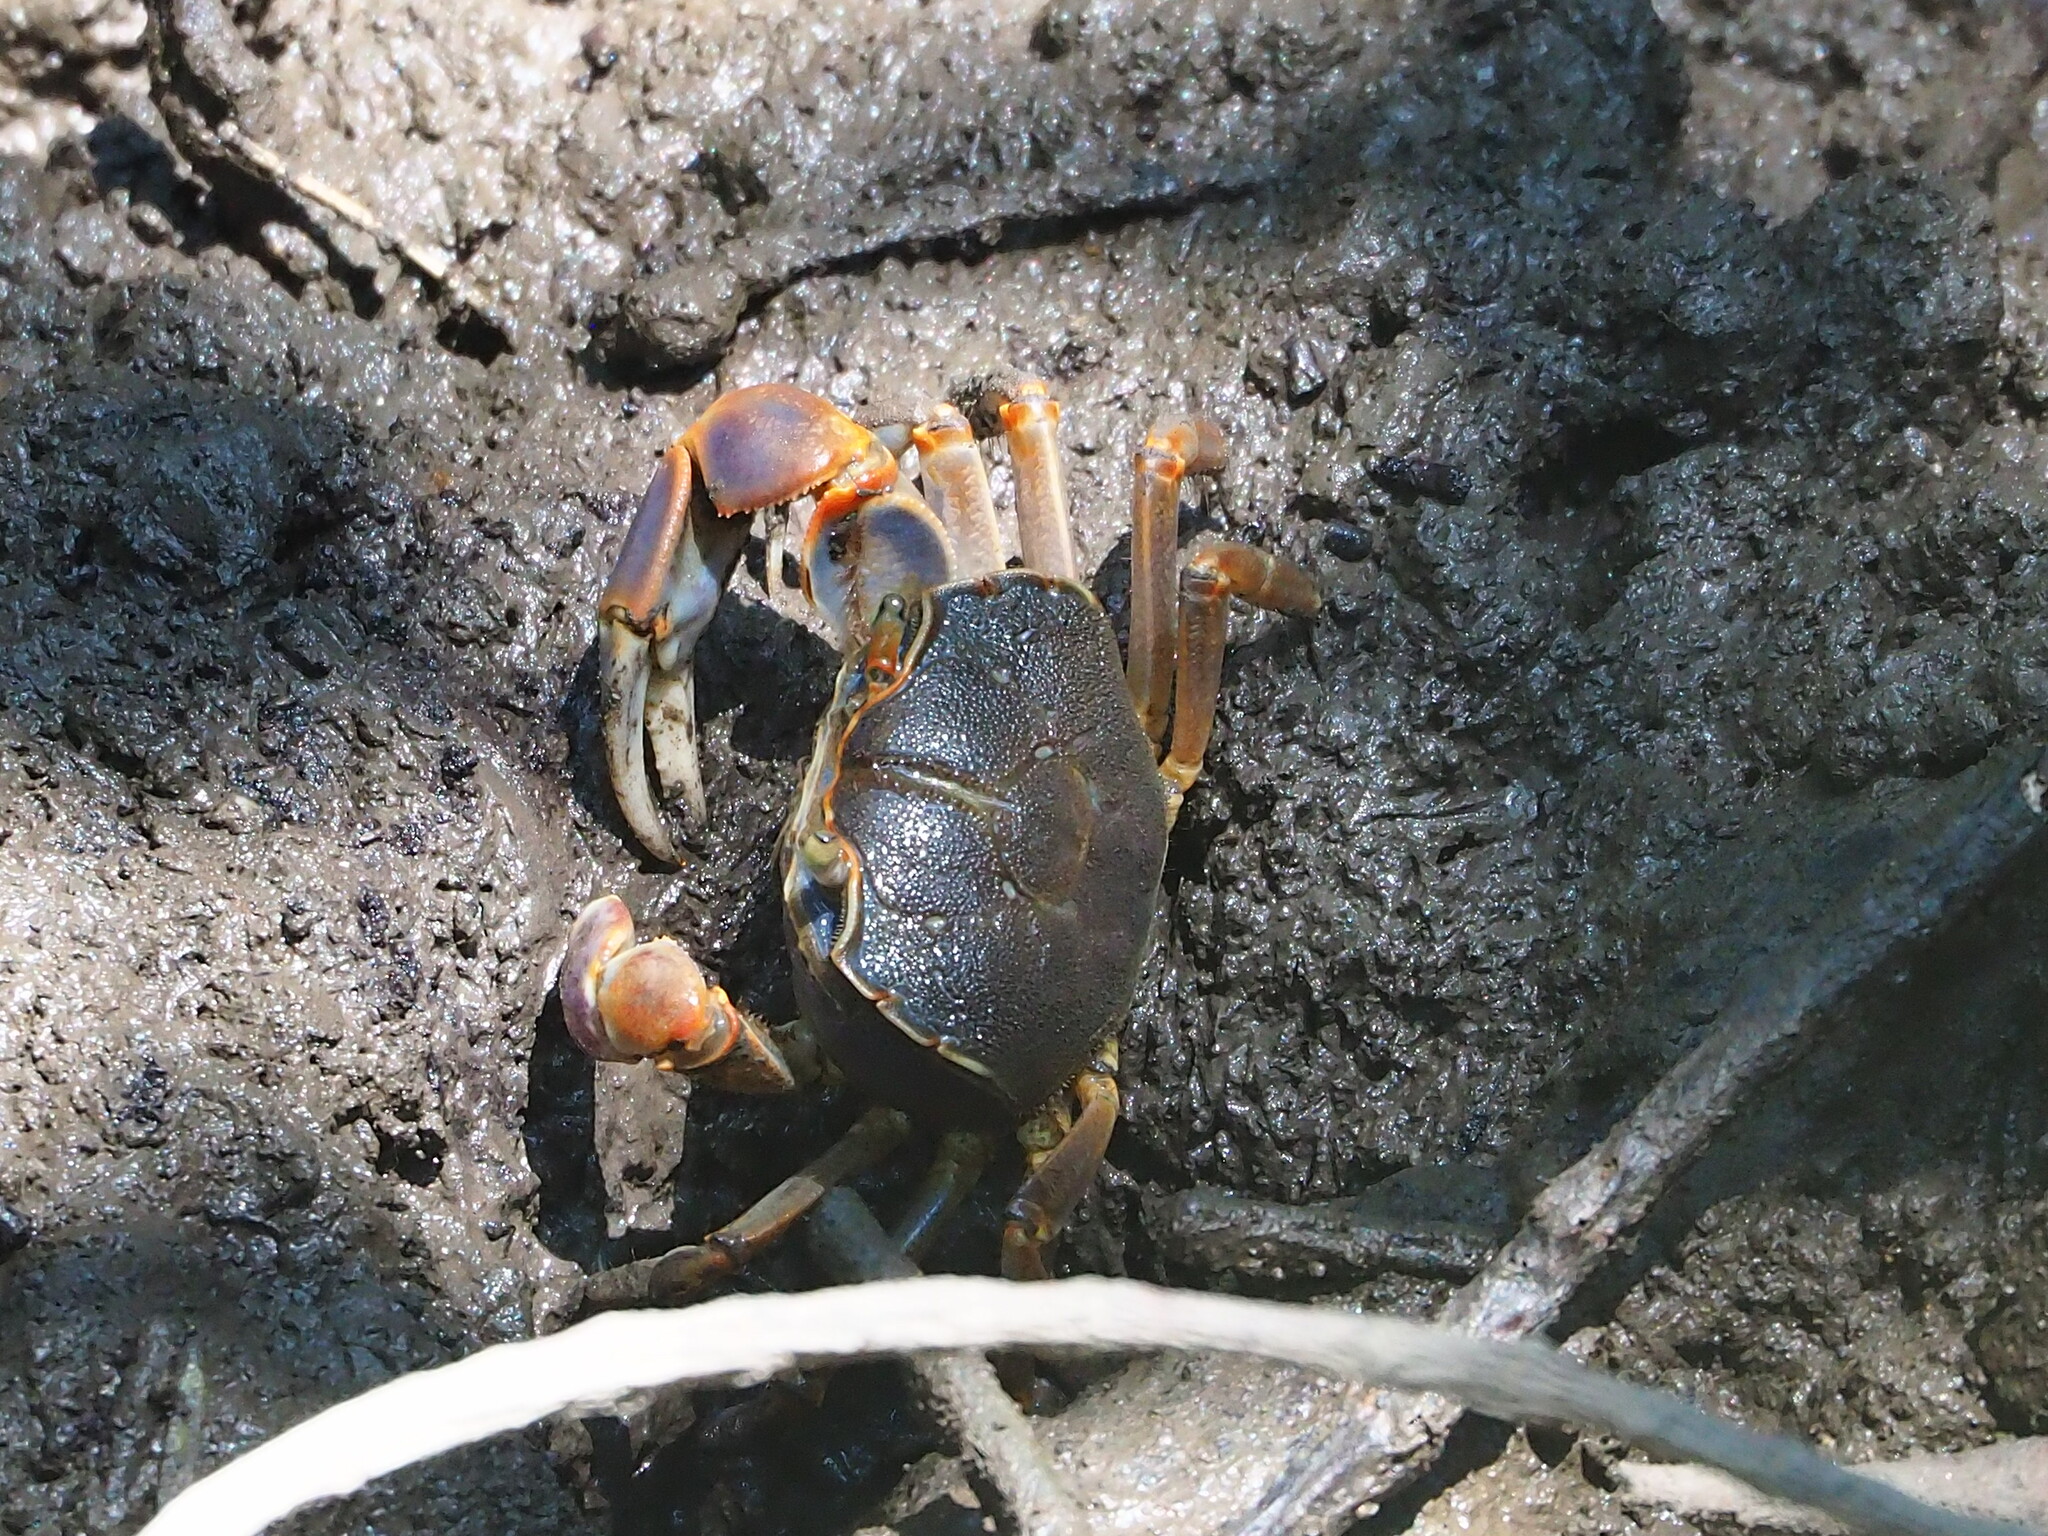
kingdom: Animalia
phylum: Arthropoda
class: Malacostraca
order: Decapoda
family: Varunidae
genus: Chasmagnathus
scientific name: Chasmagnathus convexus
